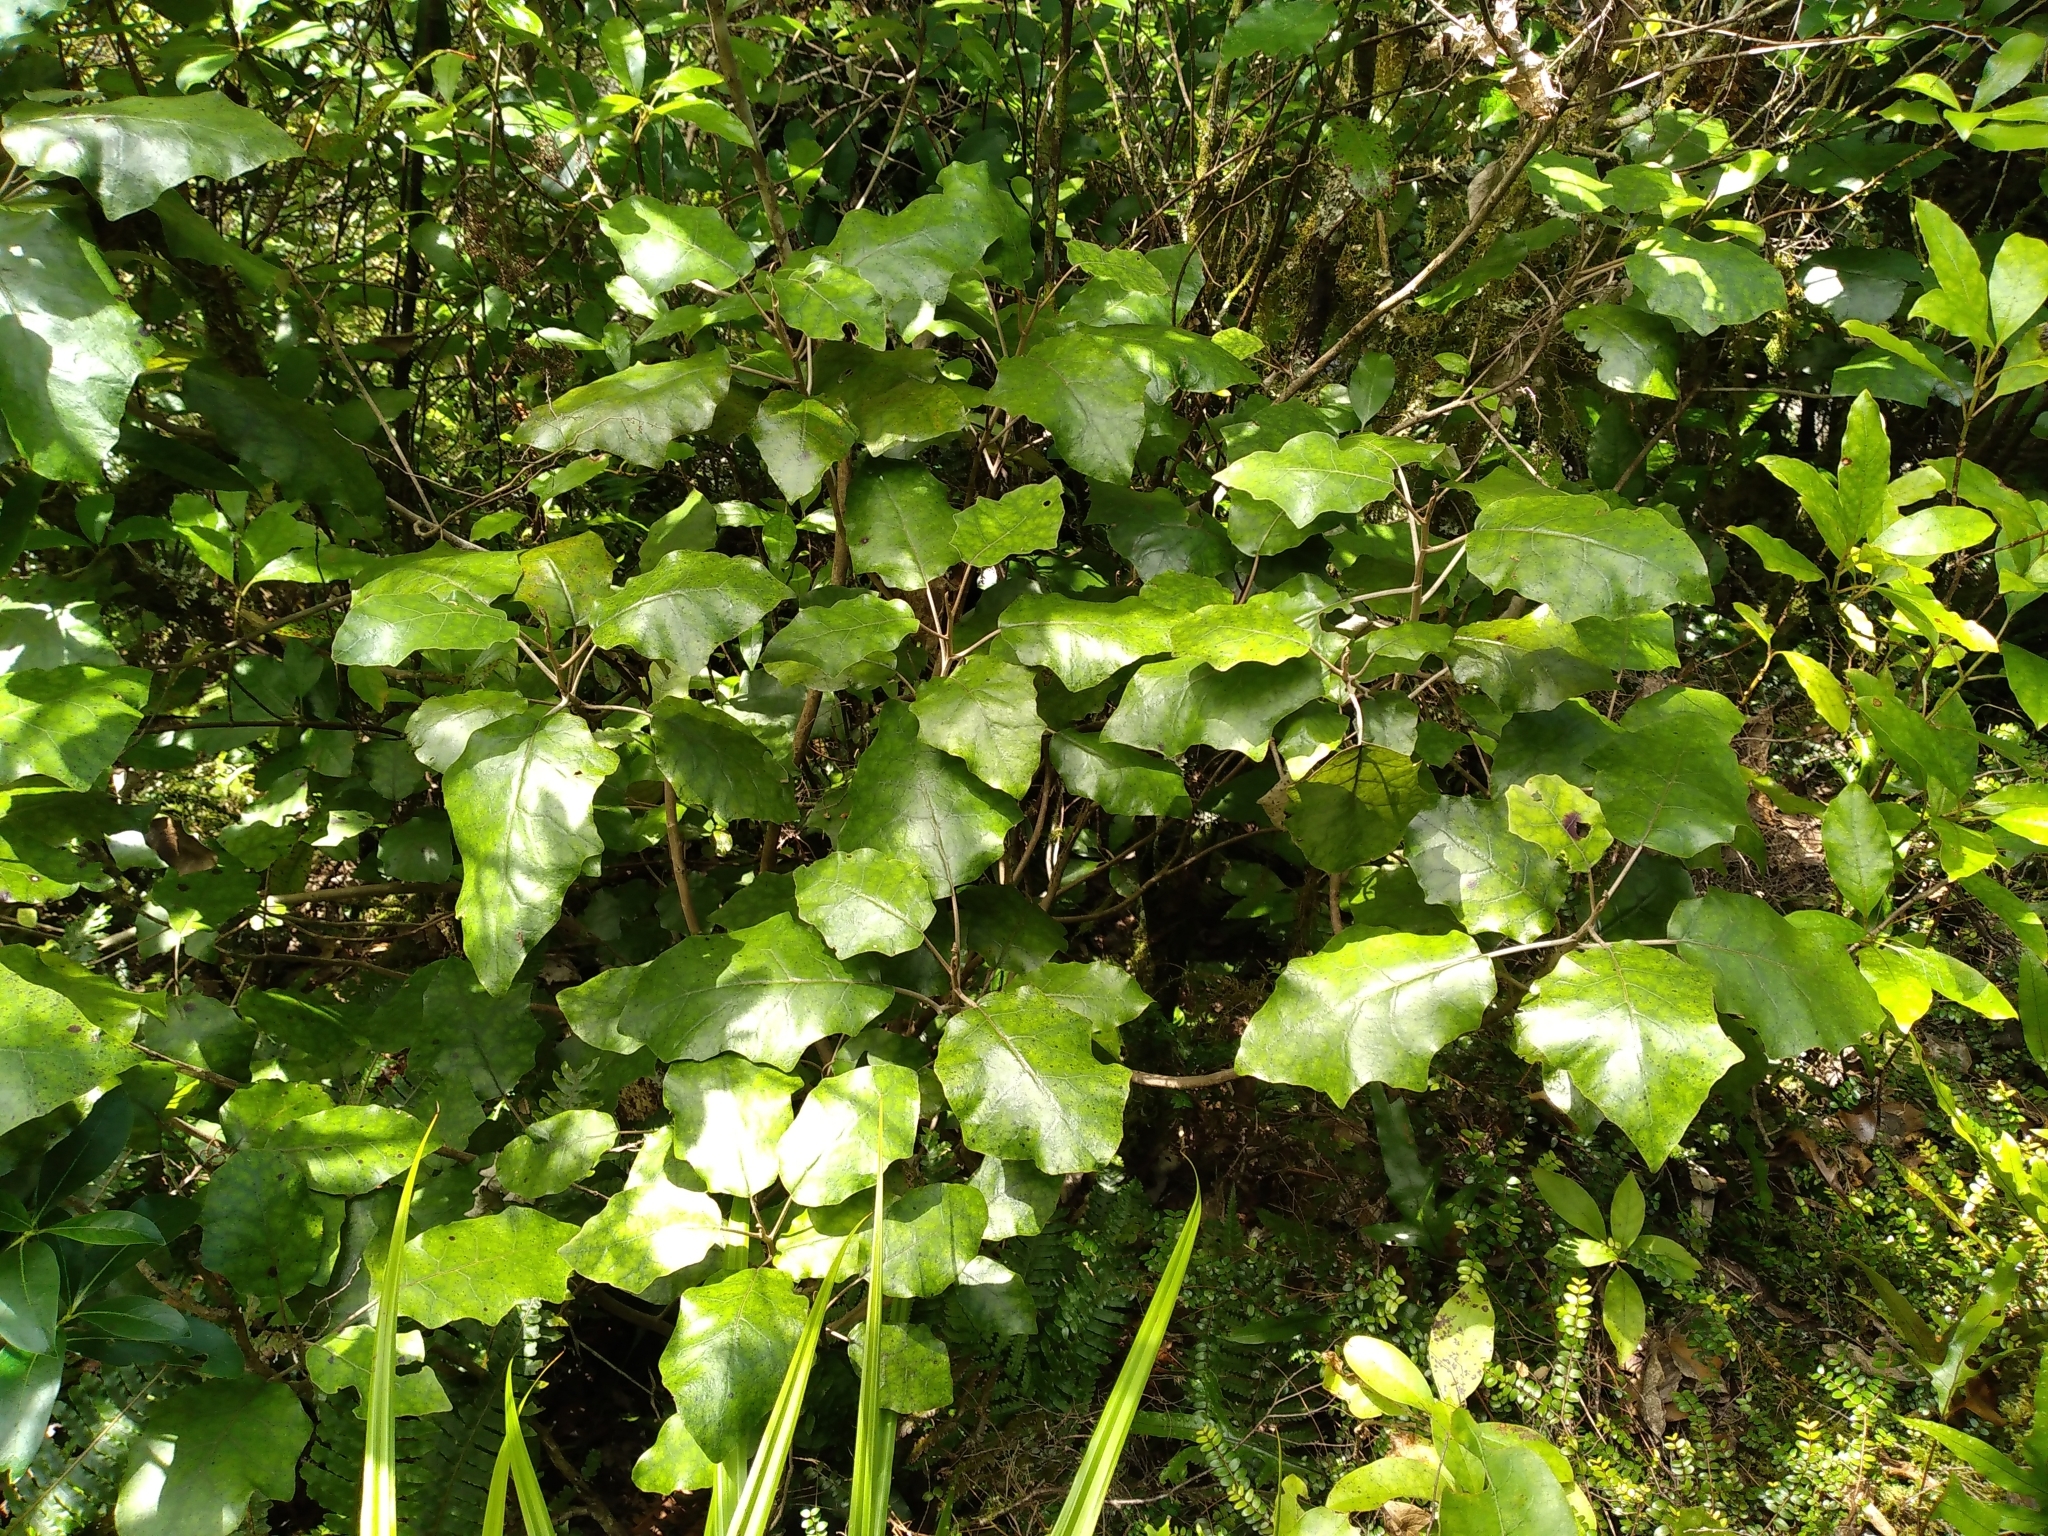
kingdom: Plantae
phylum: Tracheophyta
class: Magnoliopsida
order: Asterales
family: Asteraceae
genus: Brachyglottis
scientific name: Brachyglottis repanda
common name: Hedge ragwort
